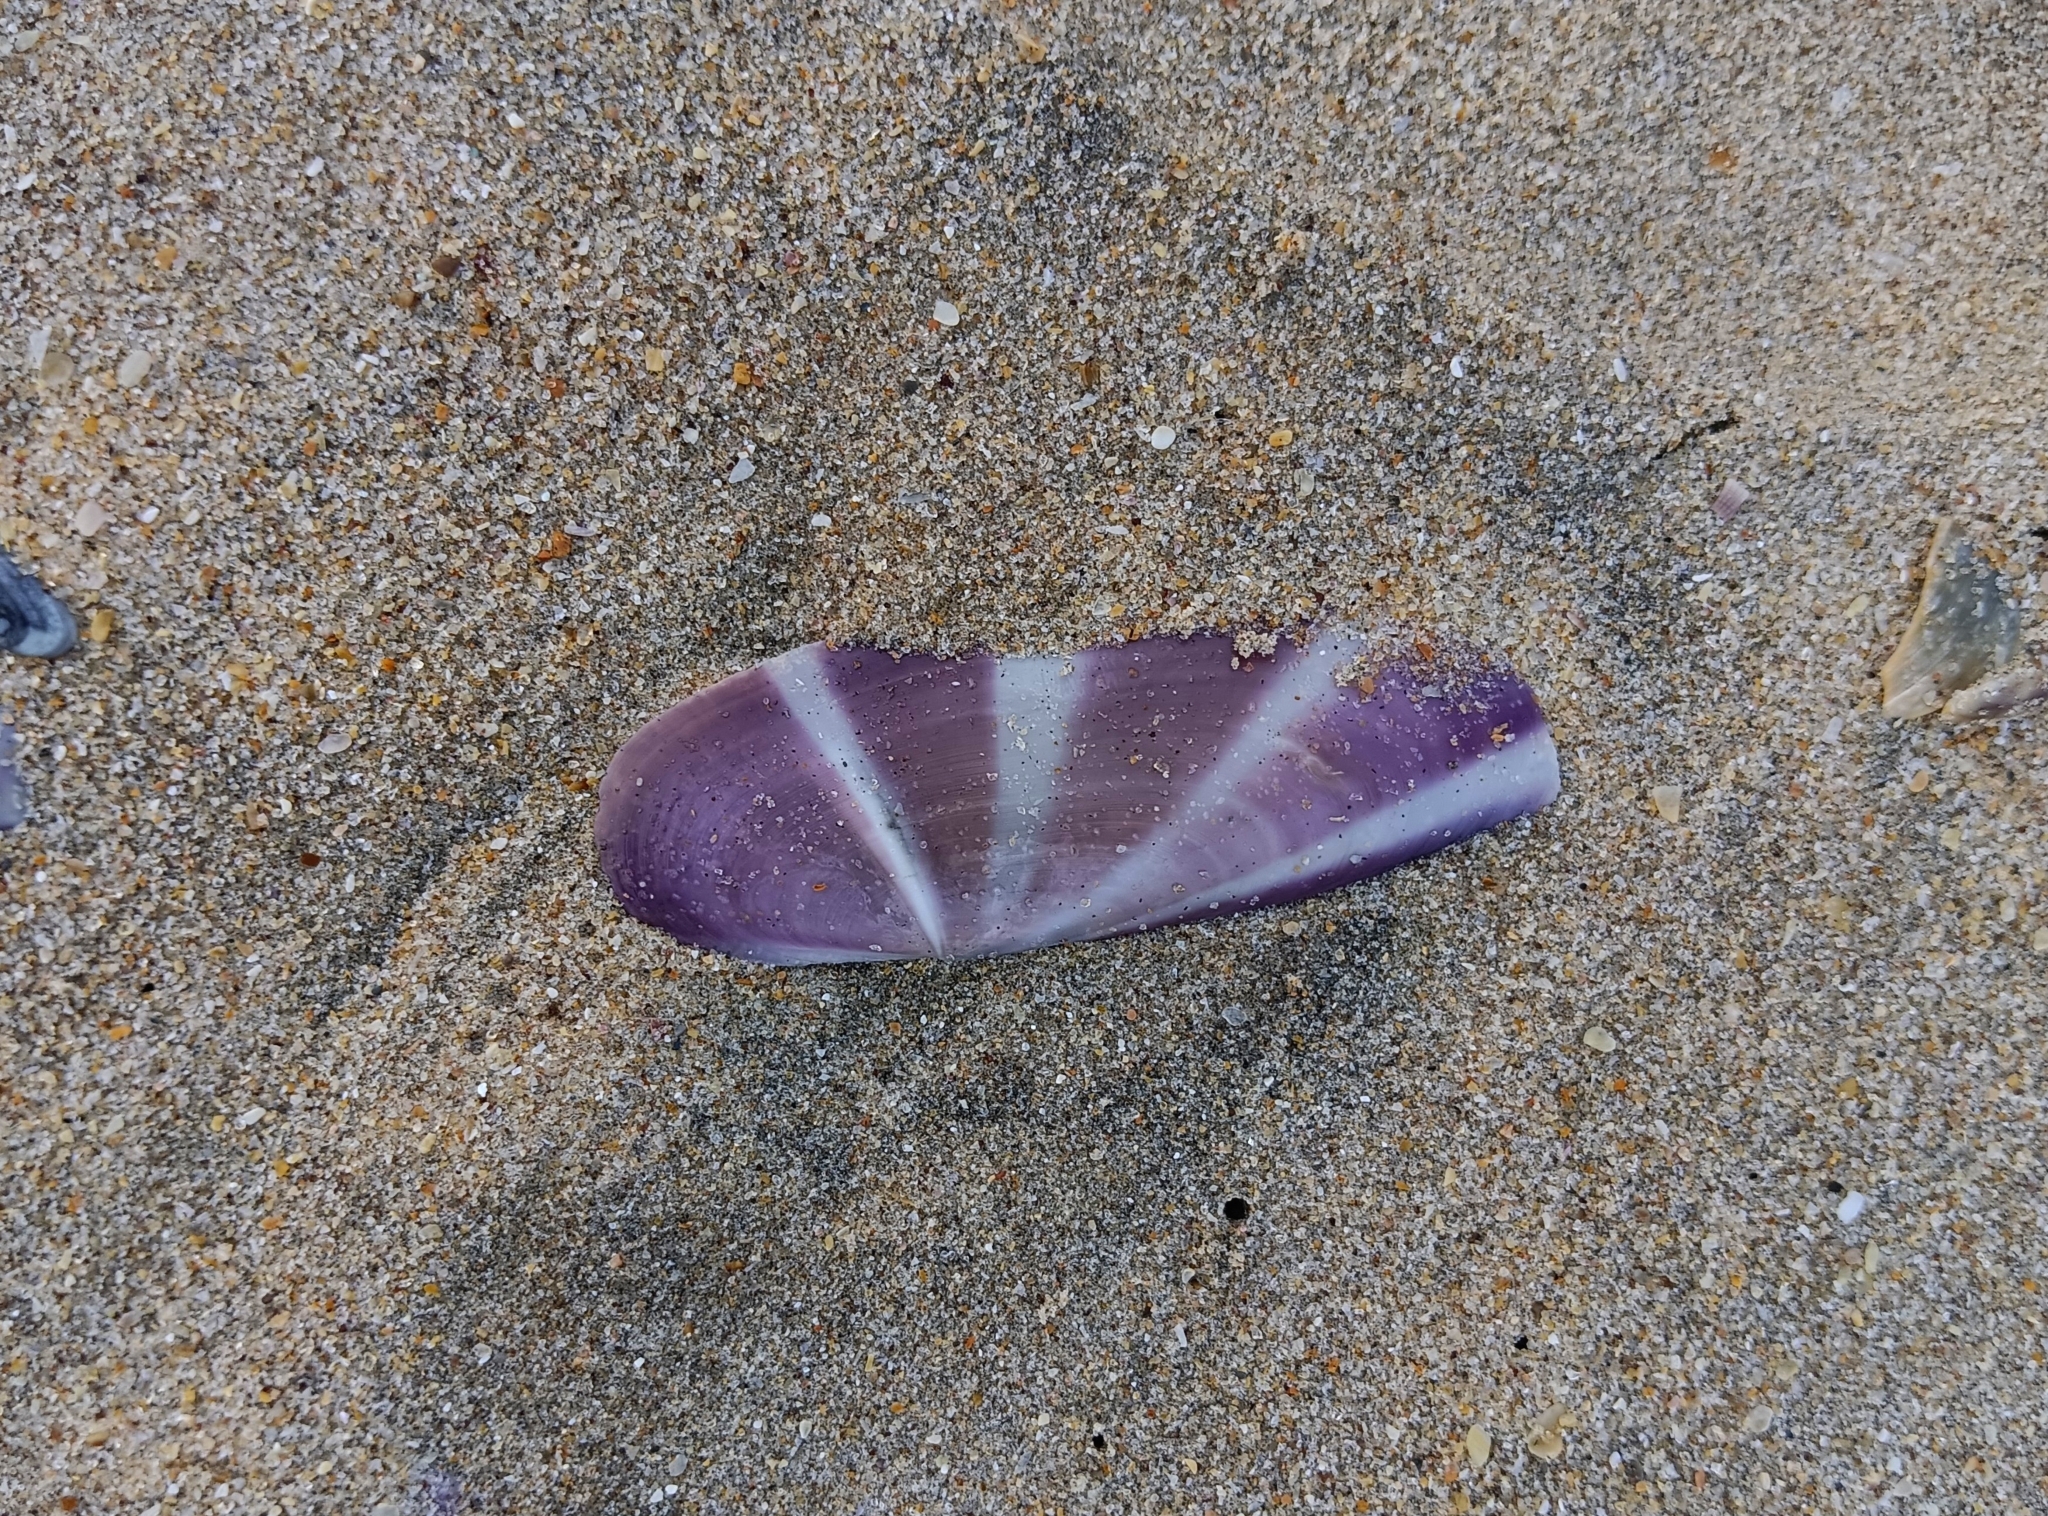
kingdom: Animalia
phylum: Mollusca
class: Bivalvia
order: Adapedonta
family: Pharidae
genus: Siliqua
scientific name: Siliqua radiata
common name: Sunset razor clam
